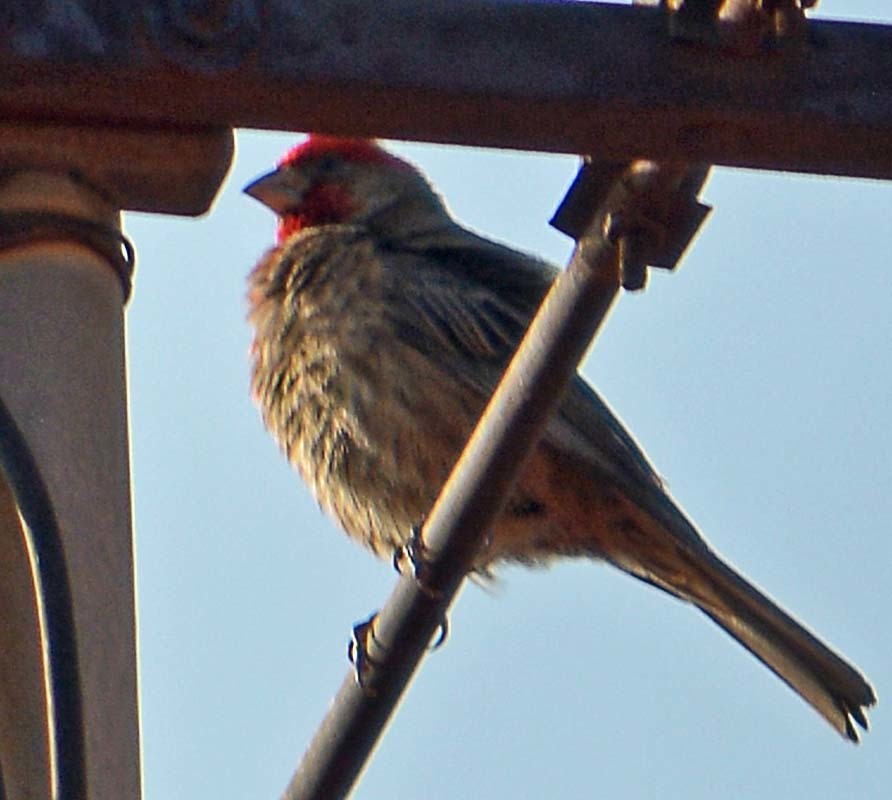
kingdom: Animalia
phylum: Chordata
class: Aves
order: Passeriformes
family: Fringillidae
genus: Haemorhous
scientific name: Haemorhous mexicanus
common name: House finch
